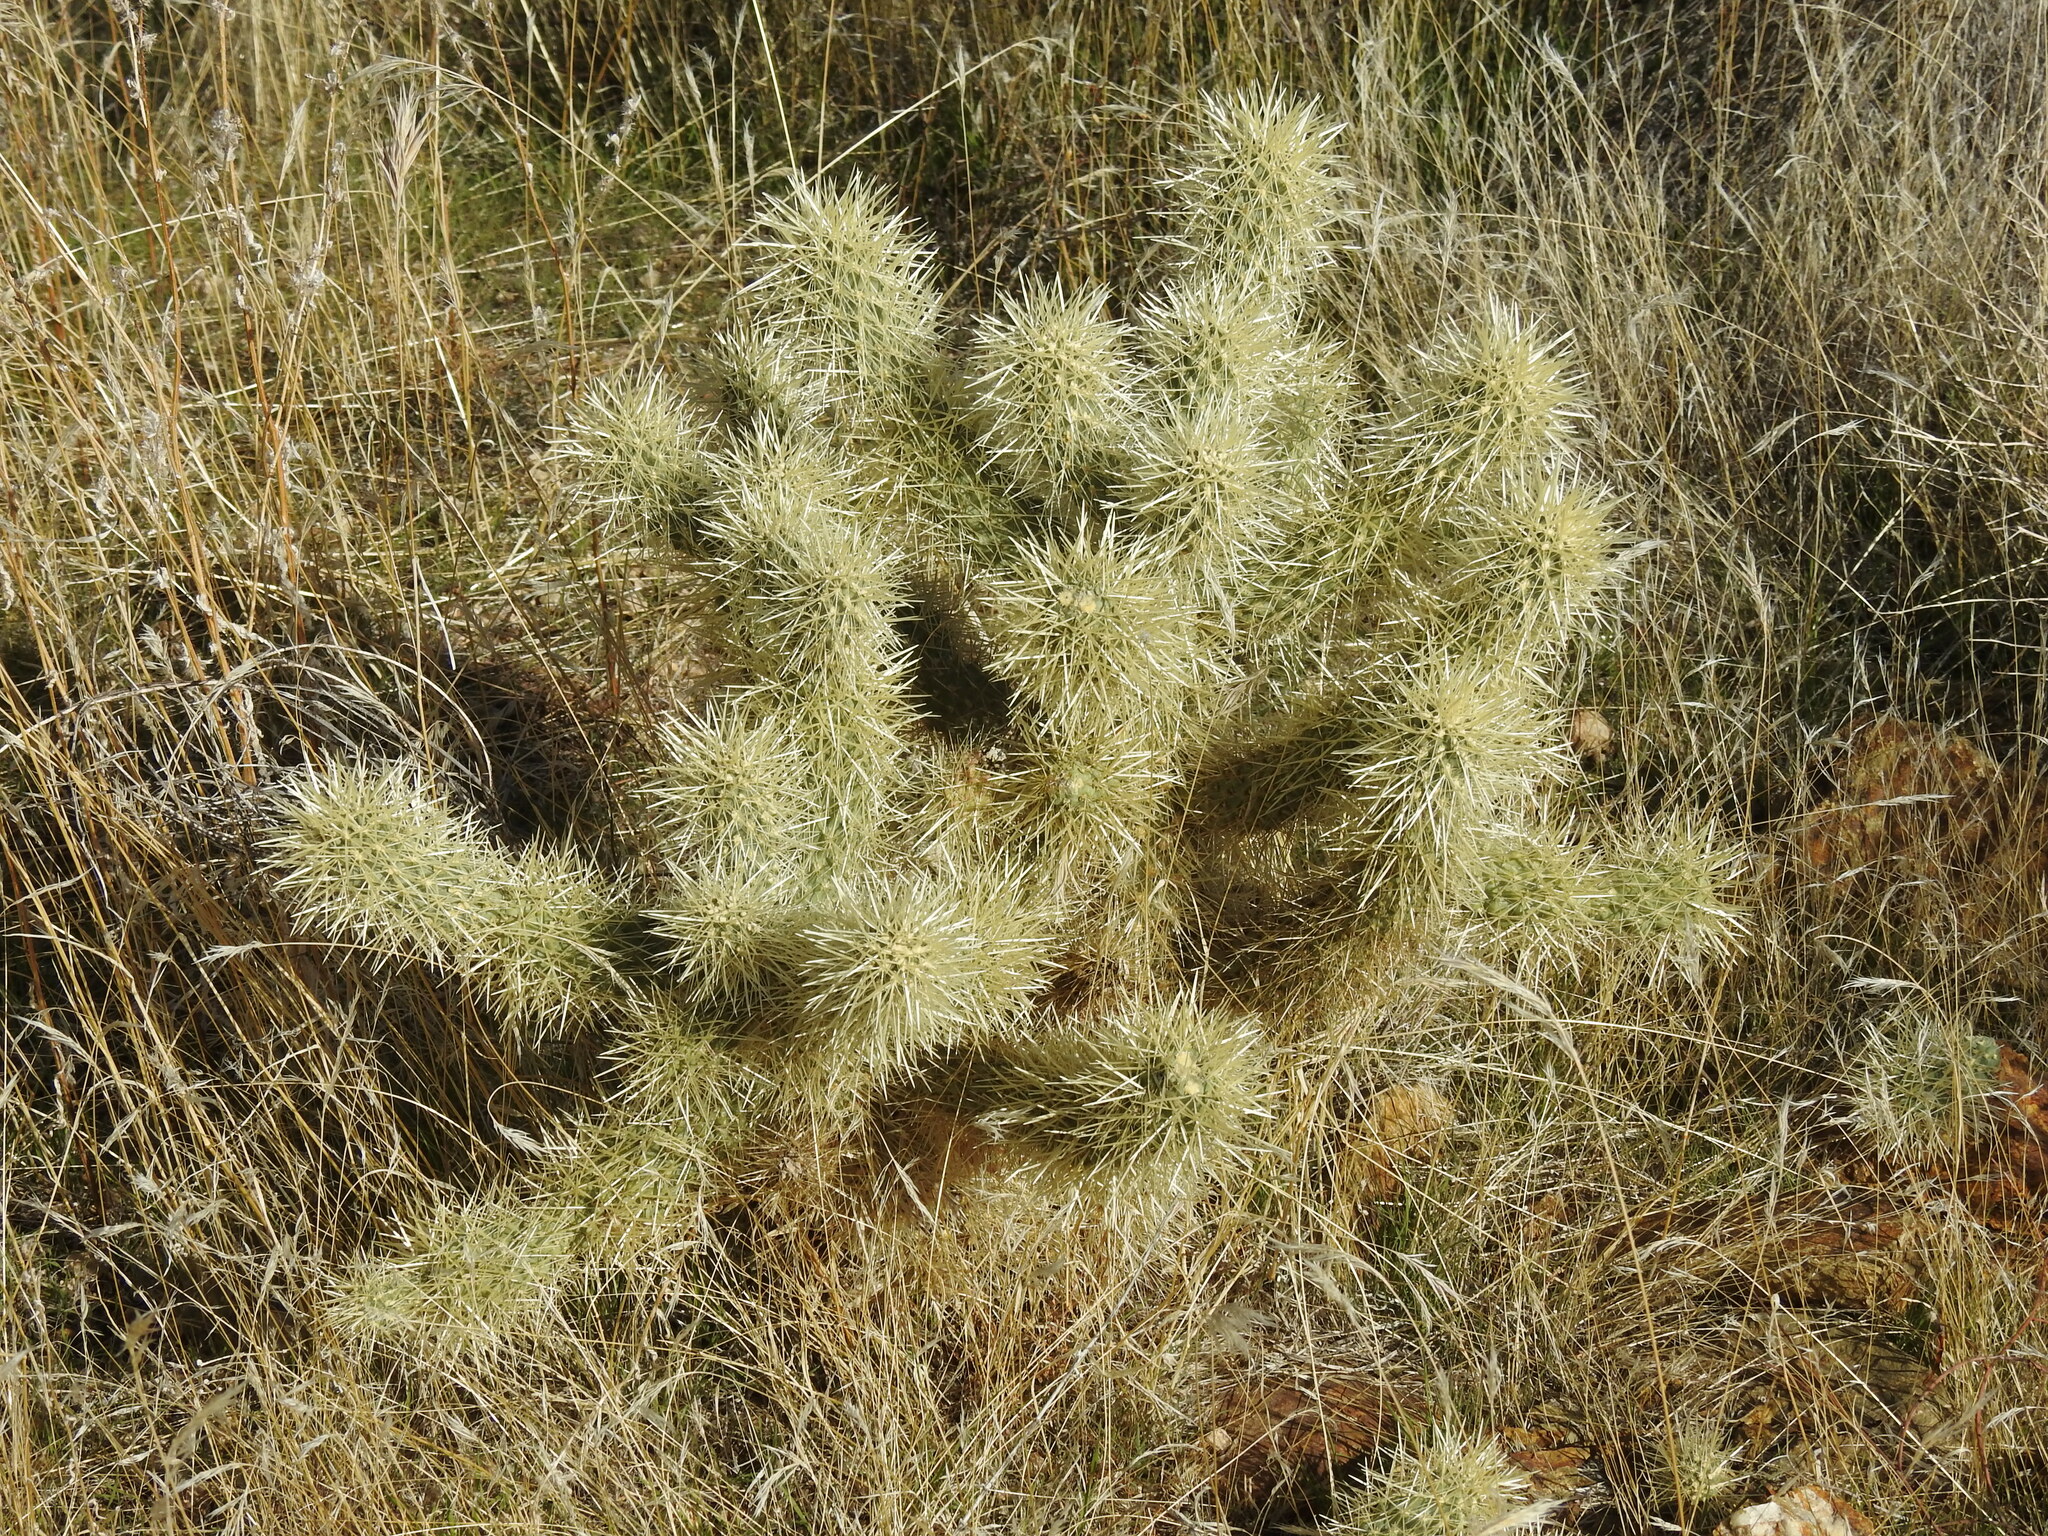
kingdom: Plantae
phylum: Tracheophyta
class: Magnoliopsida
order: Caryophyllales
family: Cactaceae
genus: Cylindropuntia
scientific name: Cylindropuntia fosbergii
